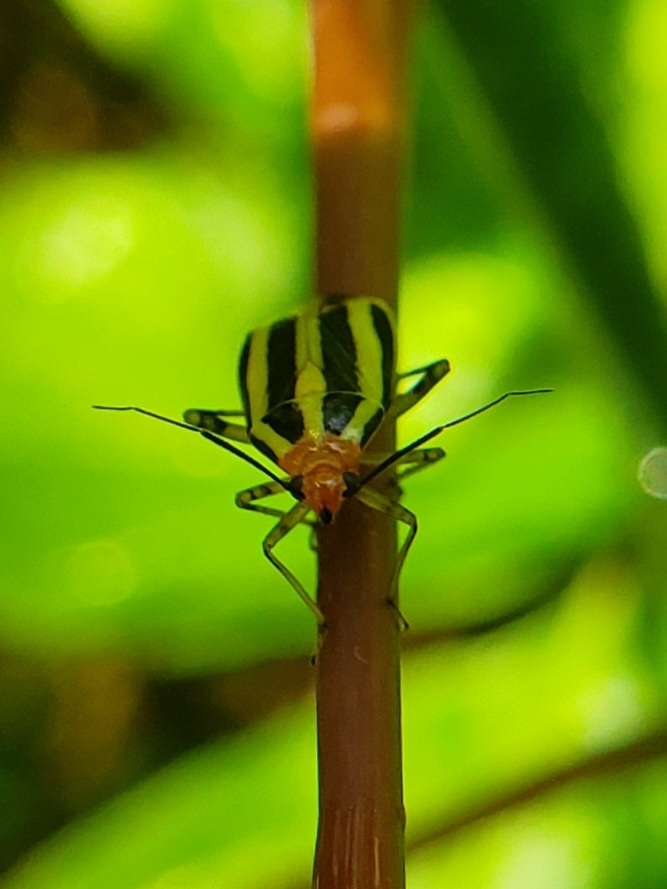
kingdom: Animalia
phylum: Arthropoda
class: Insecta
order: Hemiptera
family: Miridae
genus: Poecilocapsus
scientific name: Poecilocapsus lineatus
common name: Four-lined plant bug
